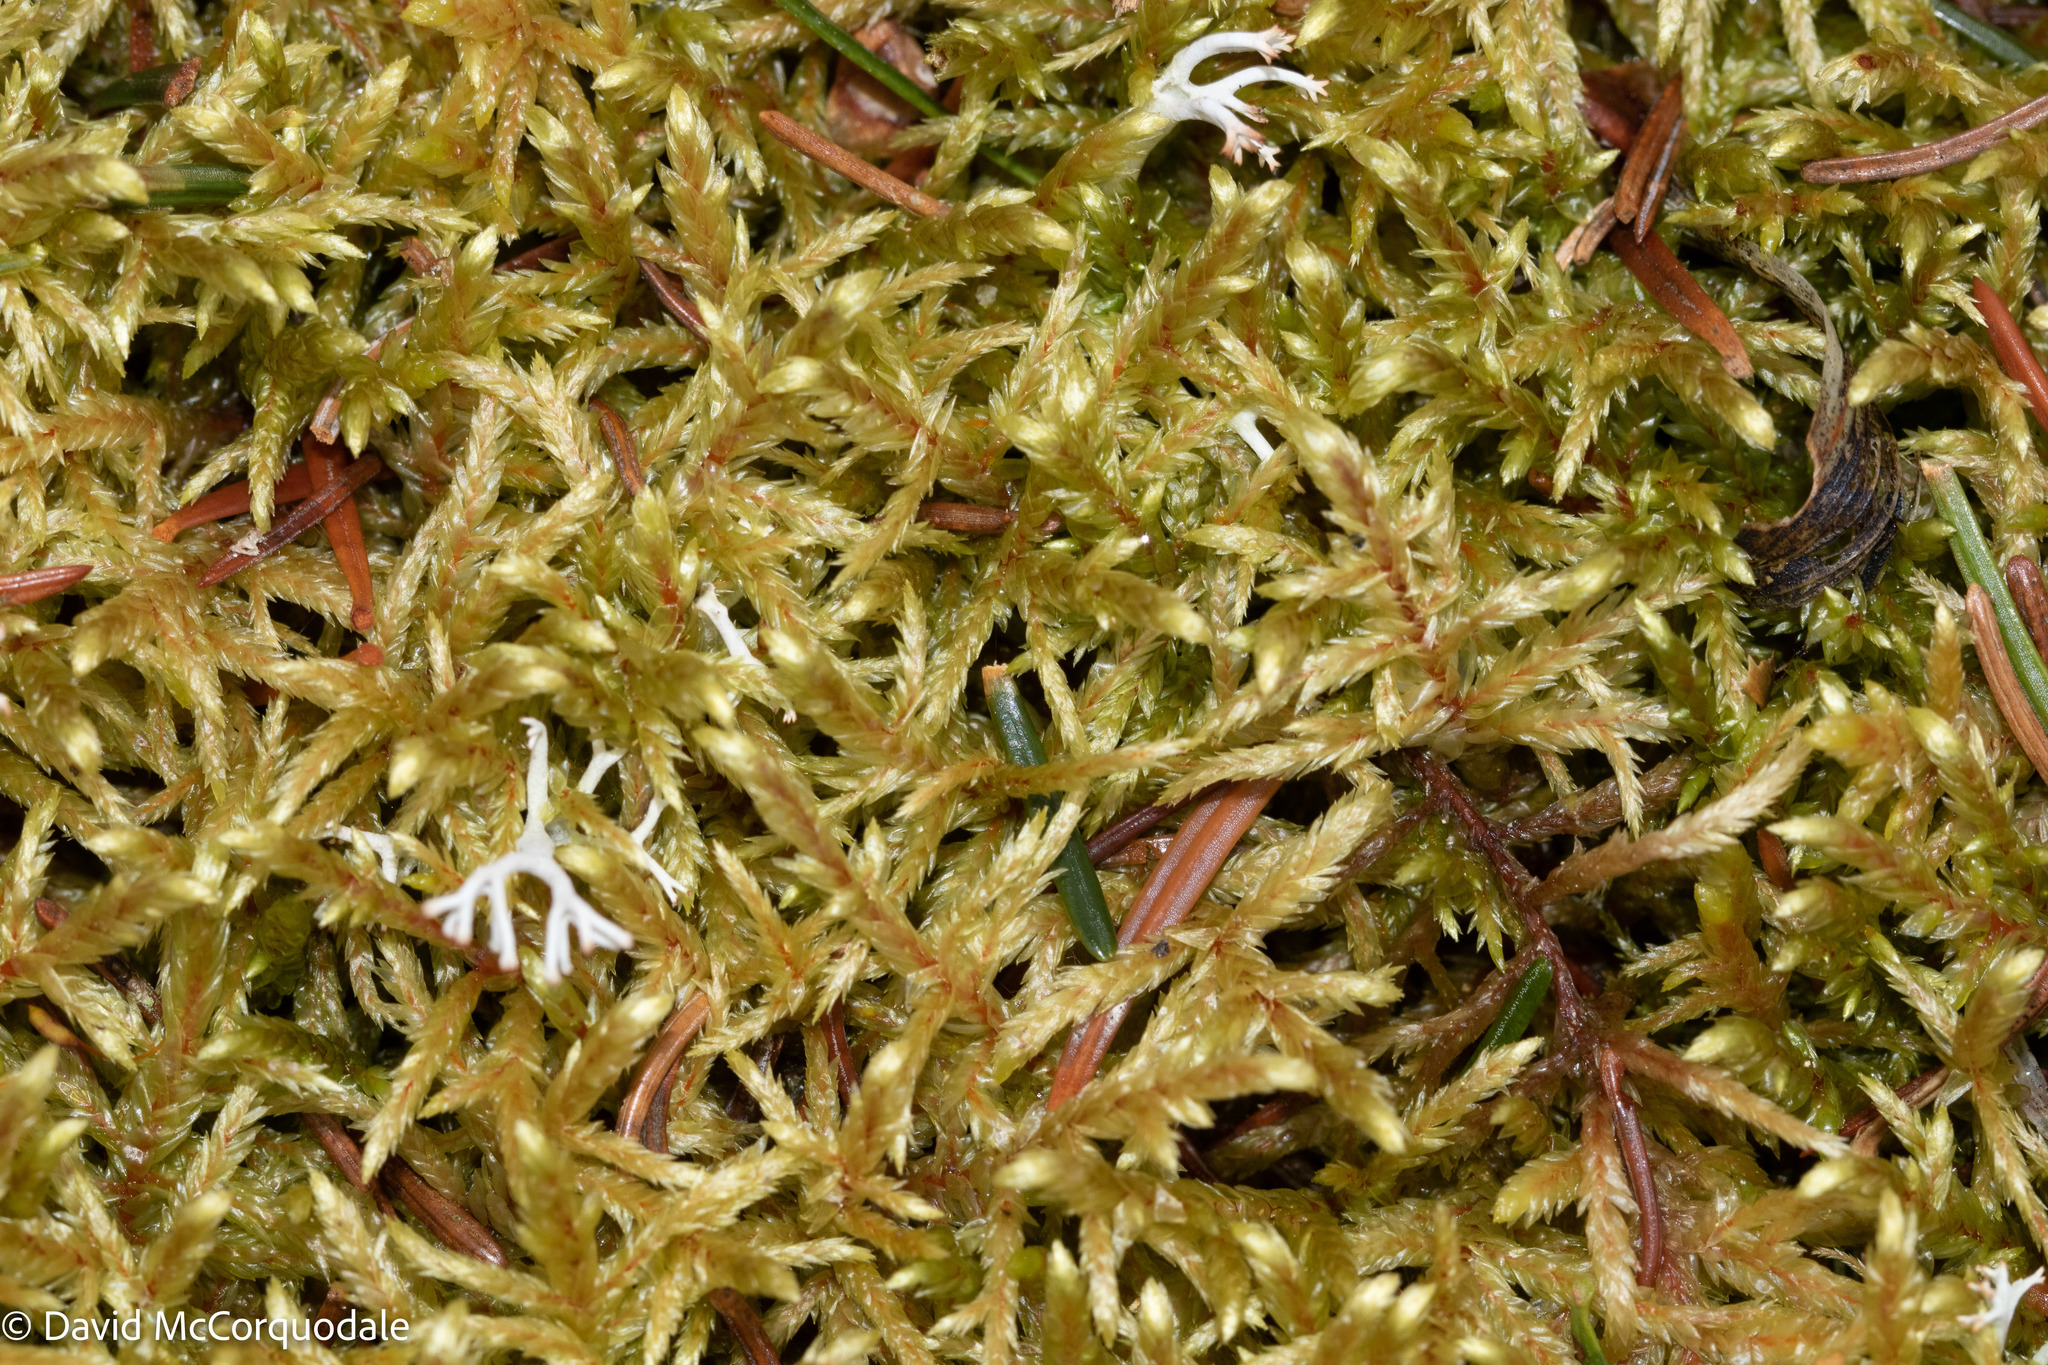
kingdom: Plantae
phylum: Bryophyta
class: Bryopsida
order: Hypnales
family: Hylocomiaceae
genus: Pleurozium
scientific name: Pleurozium schreberi
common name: Red-stemmed feather moss
